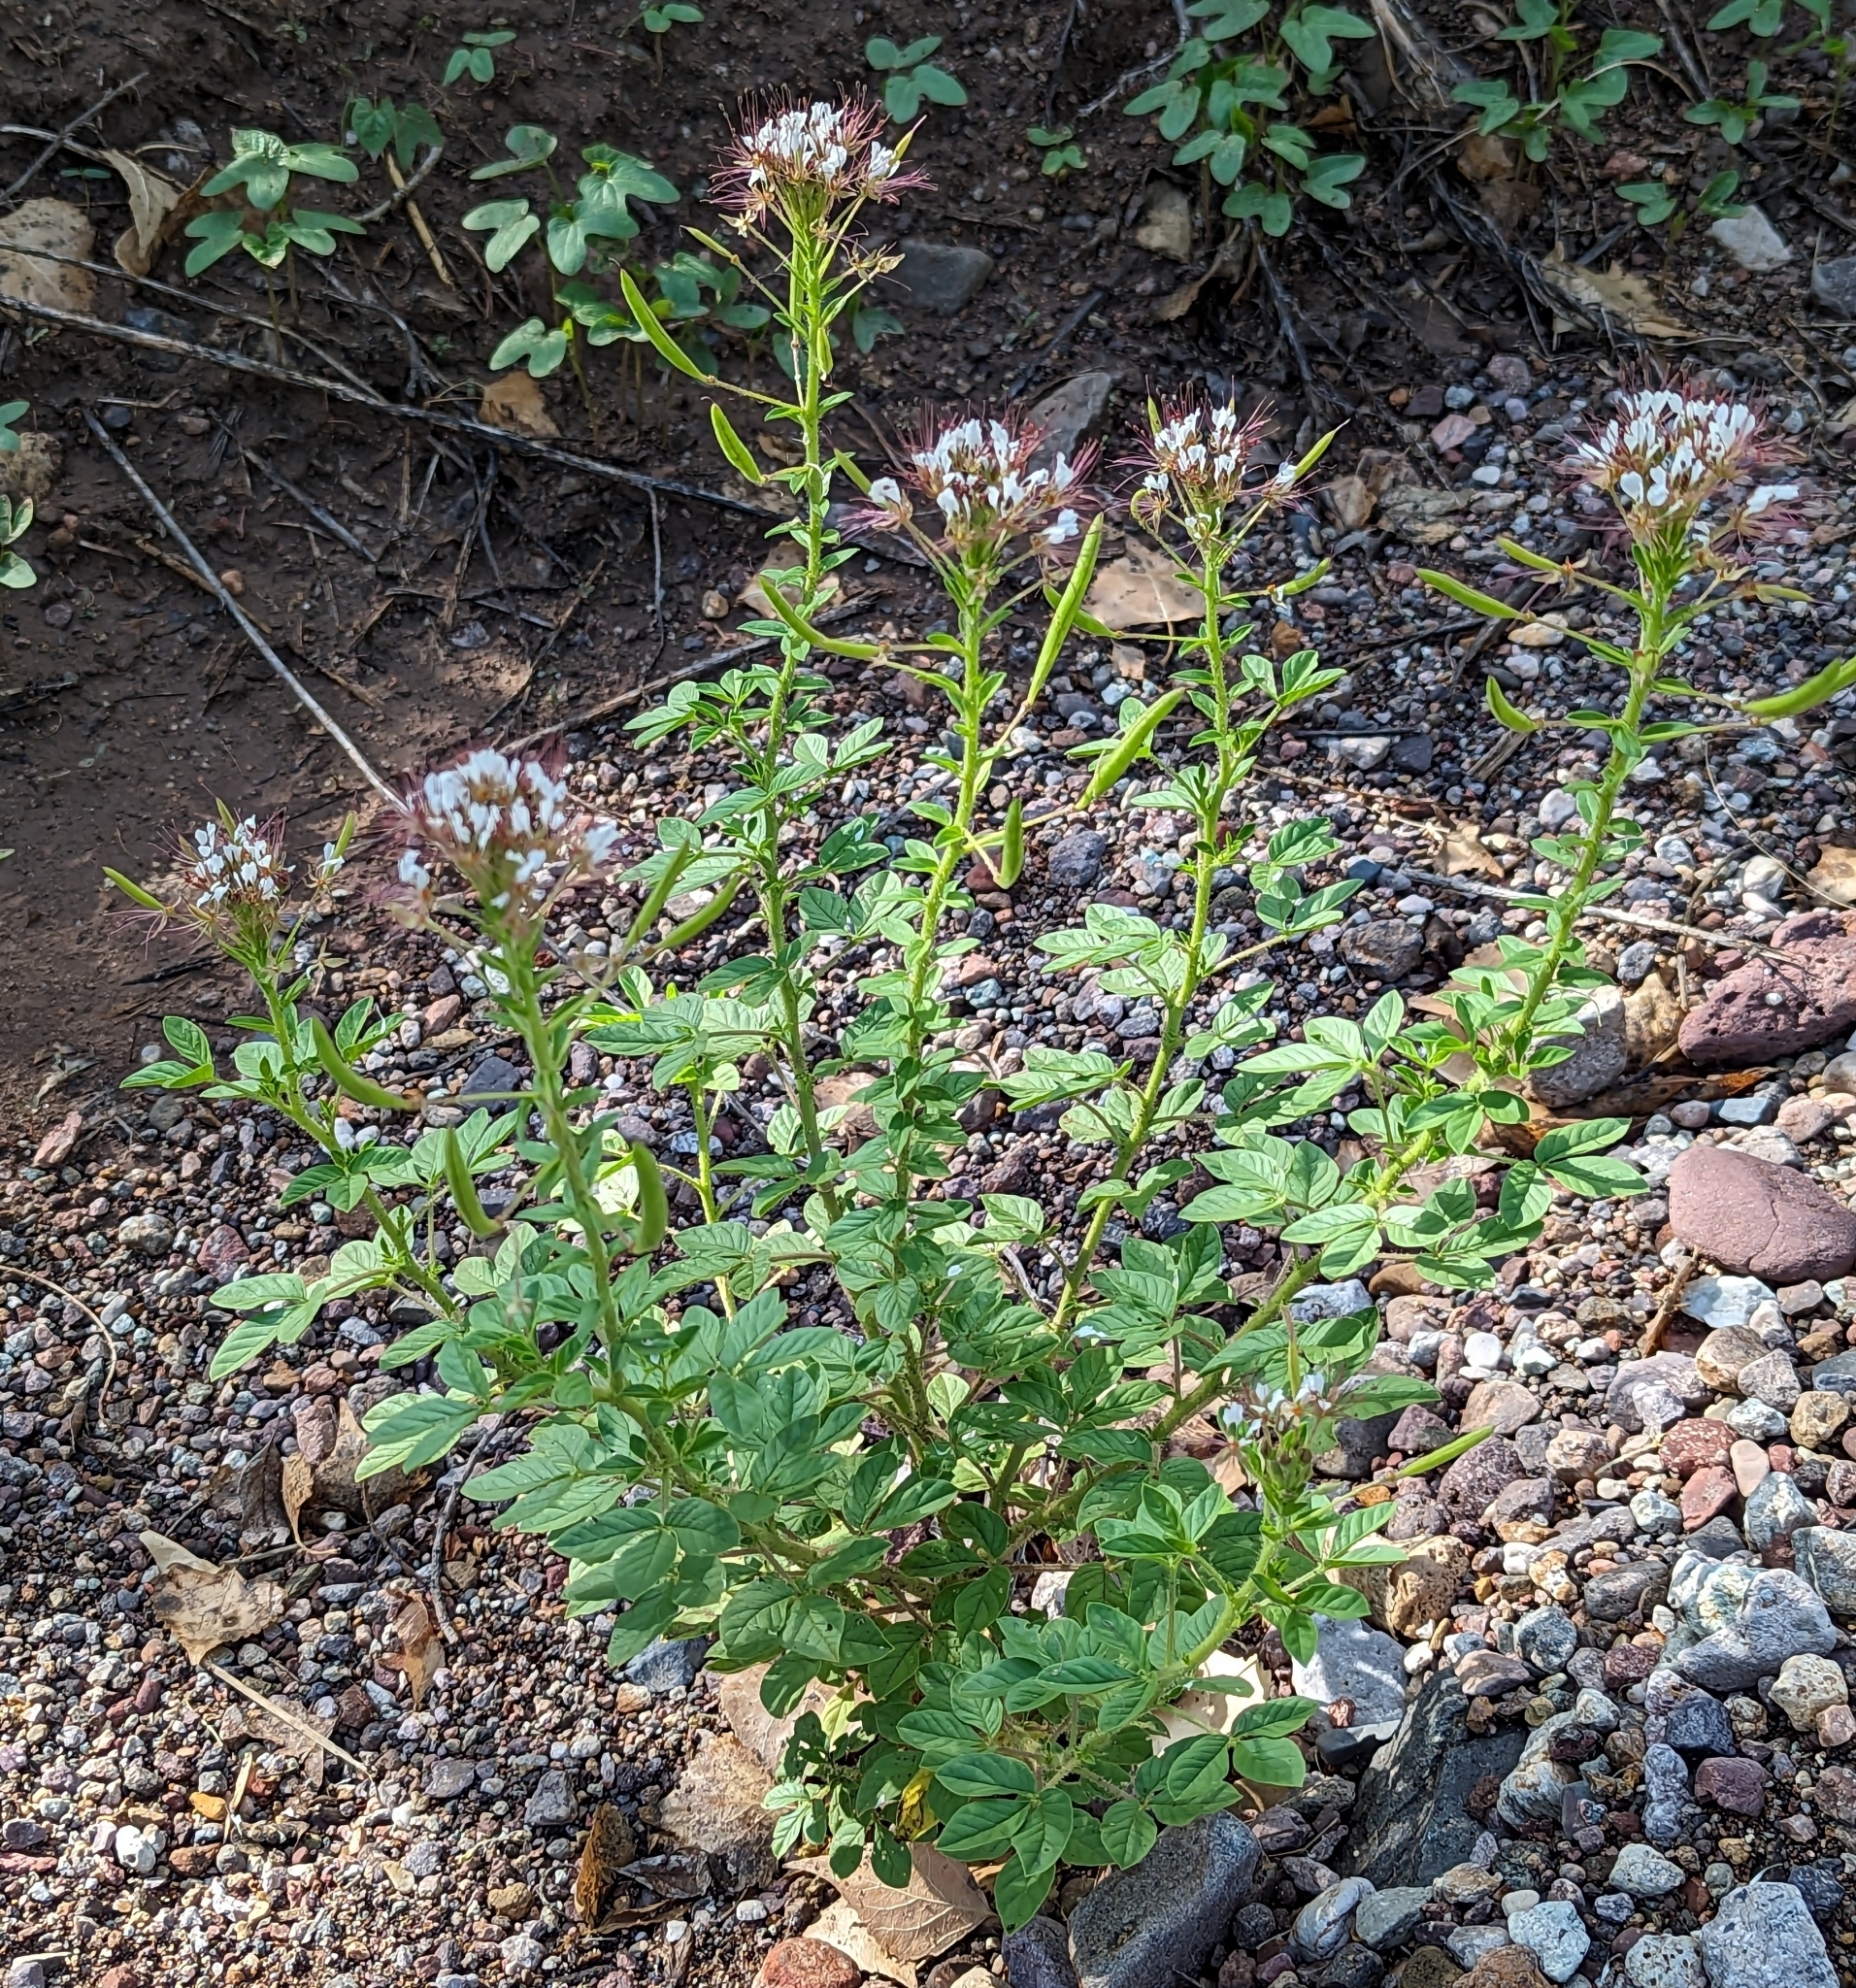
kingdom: Plantae
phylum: Tracheophyta
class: Magnoliopsida
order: Brassicales
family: Cleomaceae
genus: Polanisia
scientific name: Polanisia dodecandra
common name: Clammyweed
